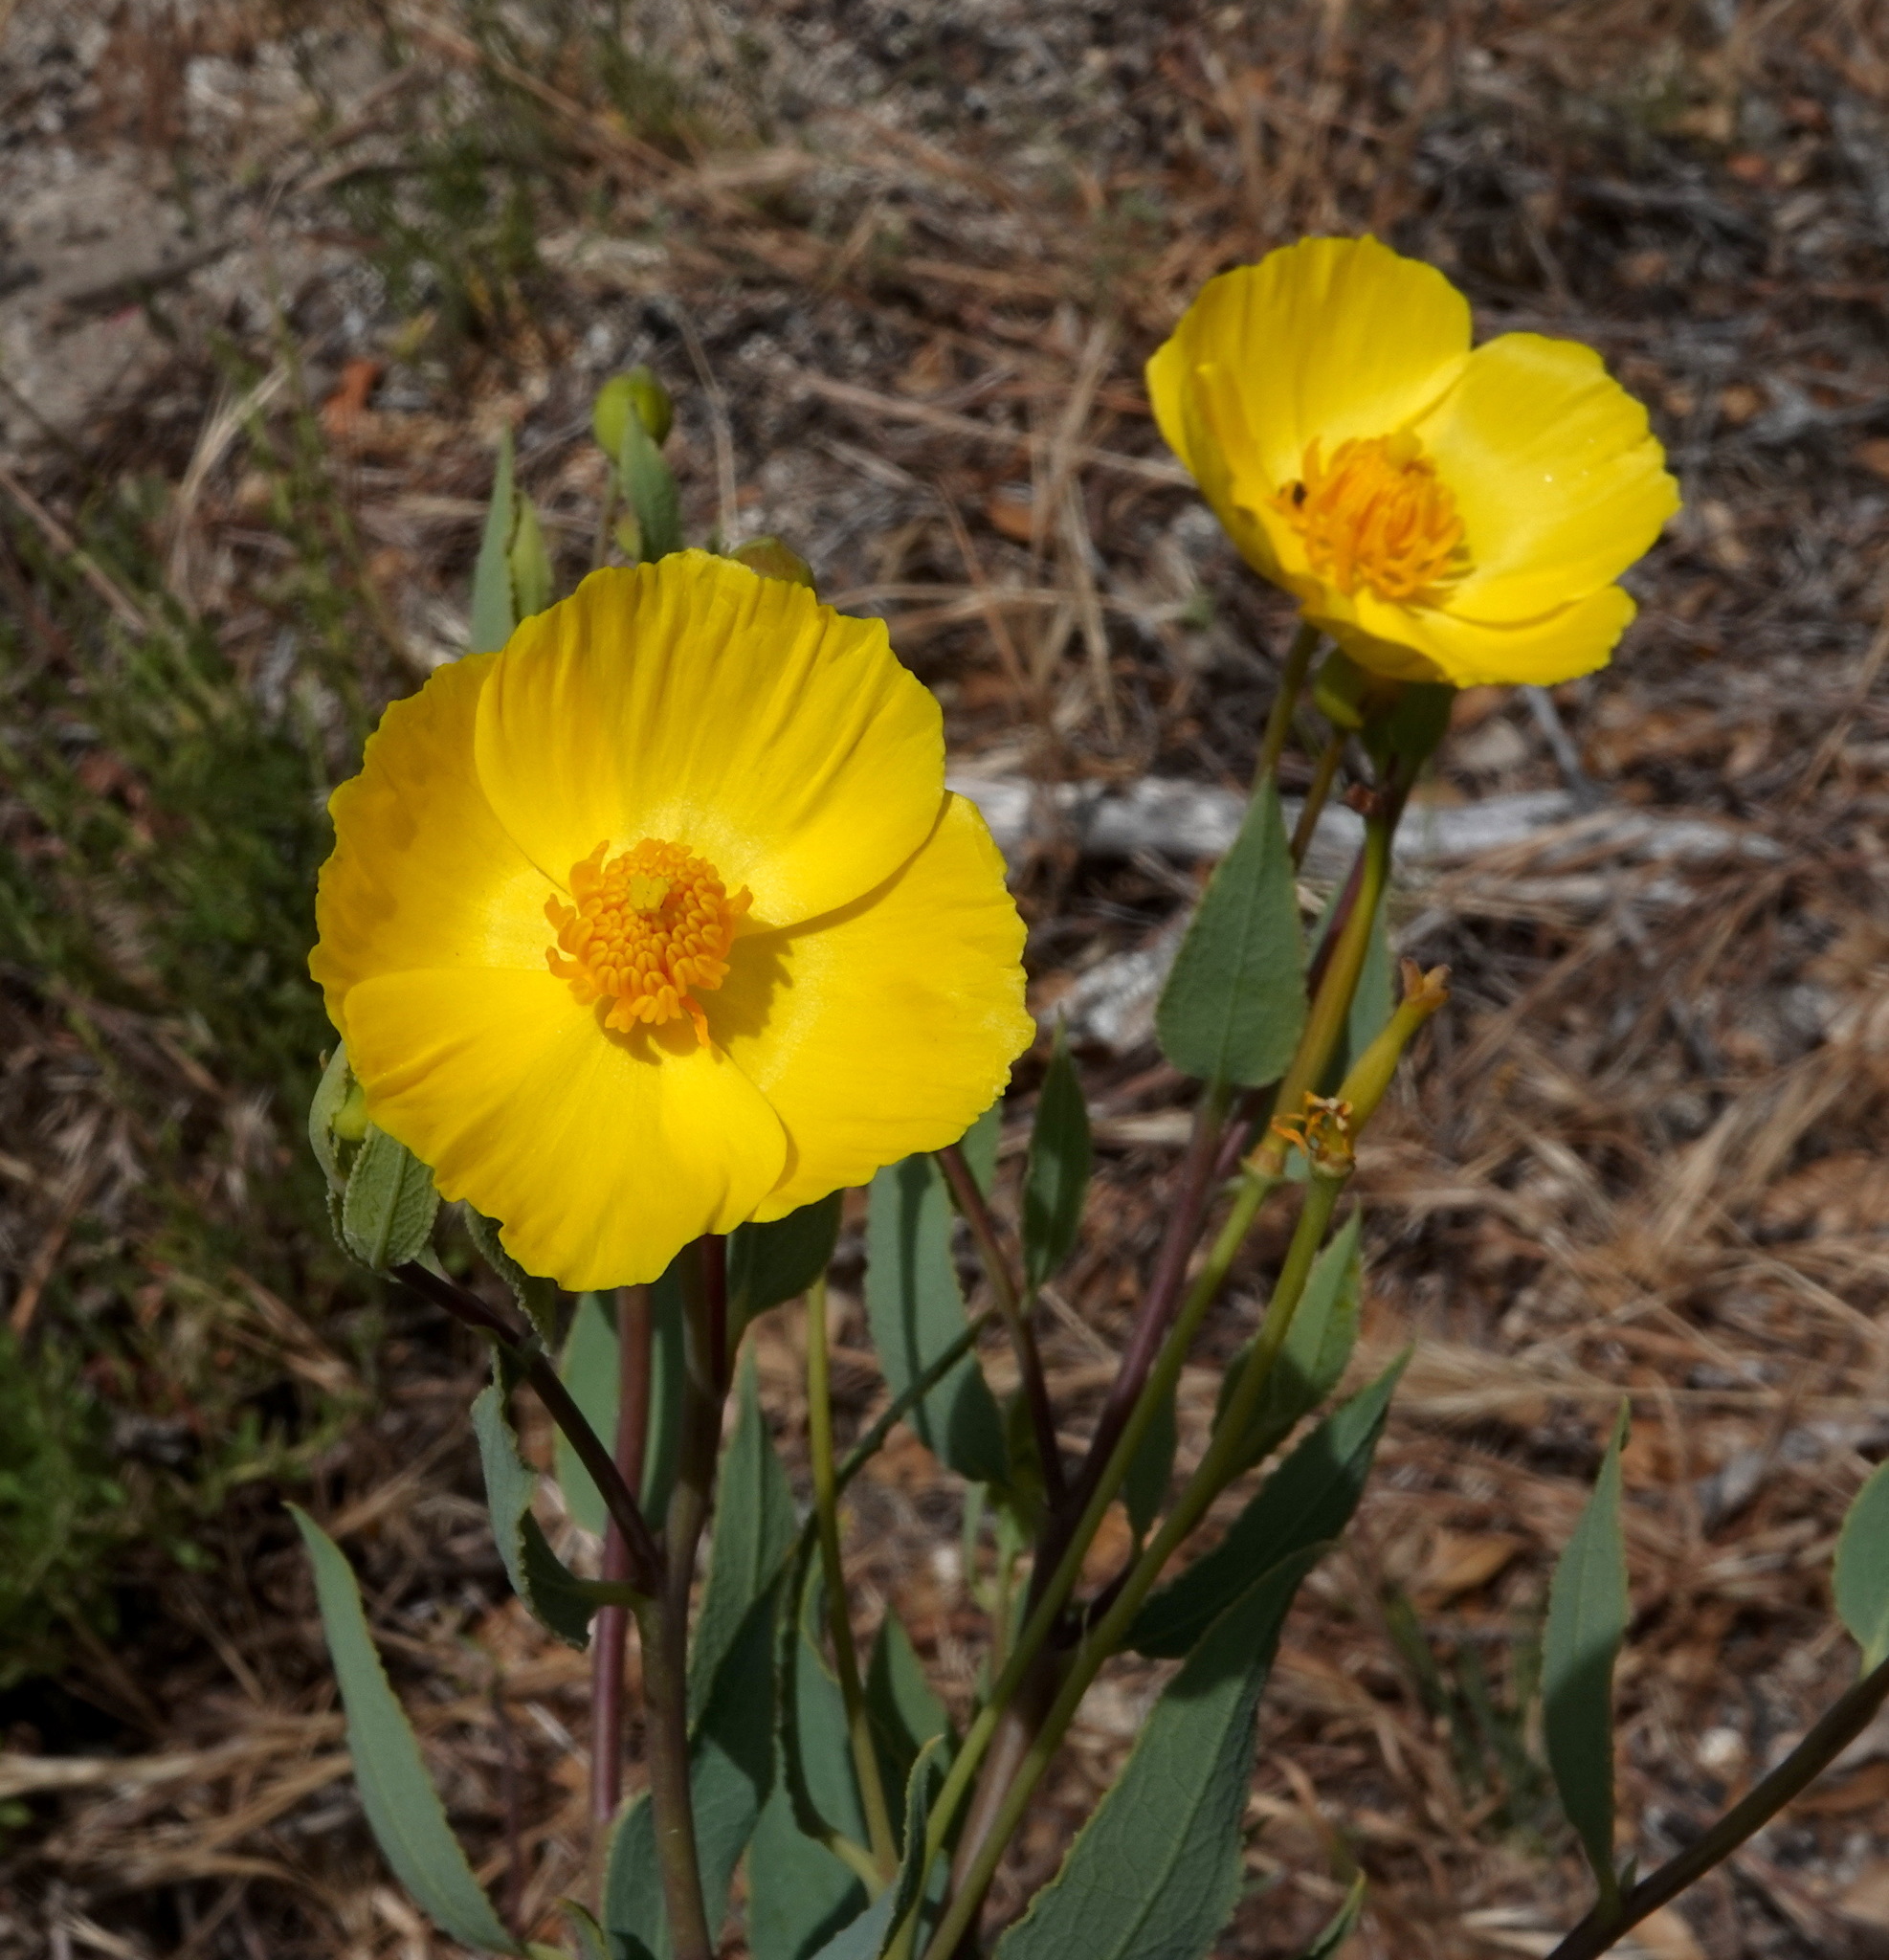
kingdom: Plantae
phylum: Tracheophyta
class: Magnoliopsida
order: Ranunculales
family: Papaveraceae
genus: Dendromecon
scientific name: Dendromecon rigida
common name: Tree poppy
